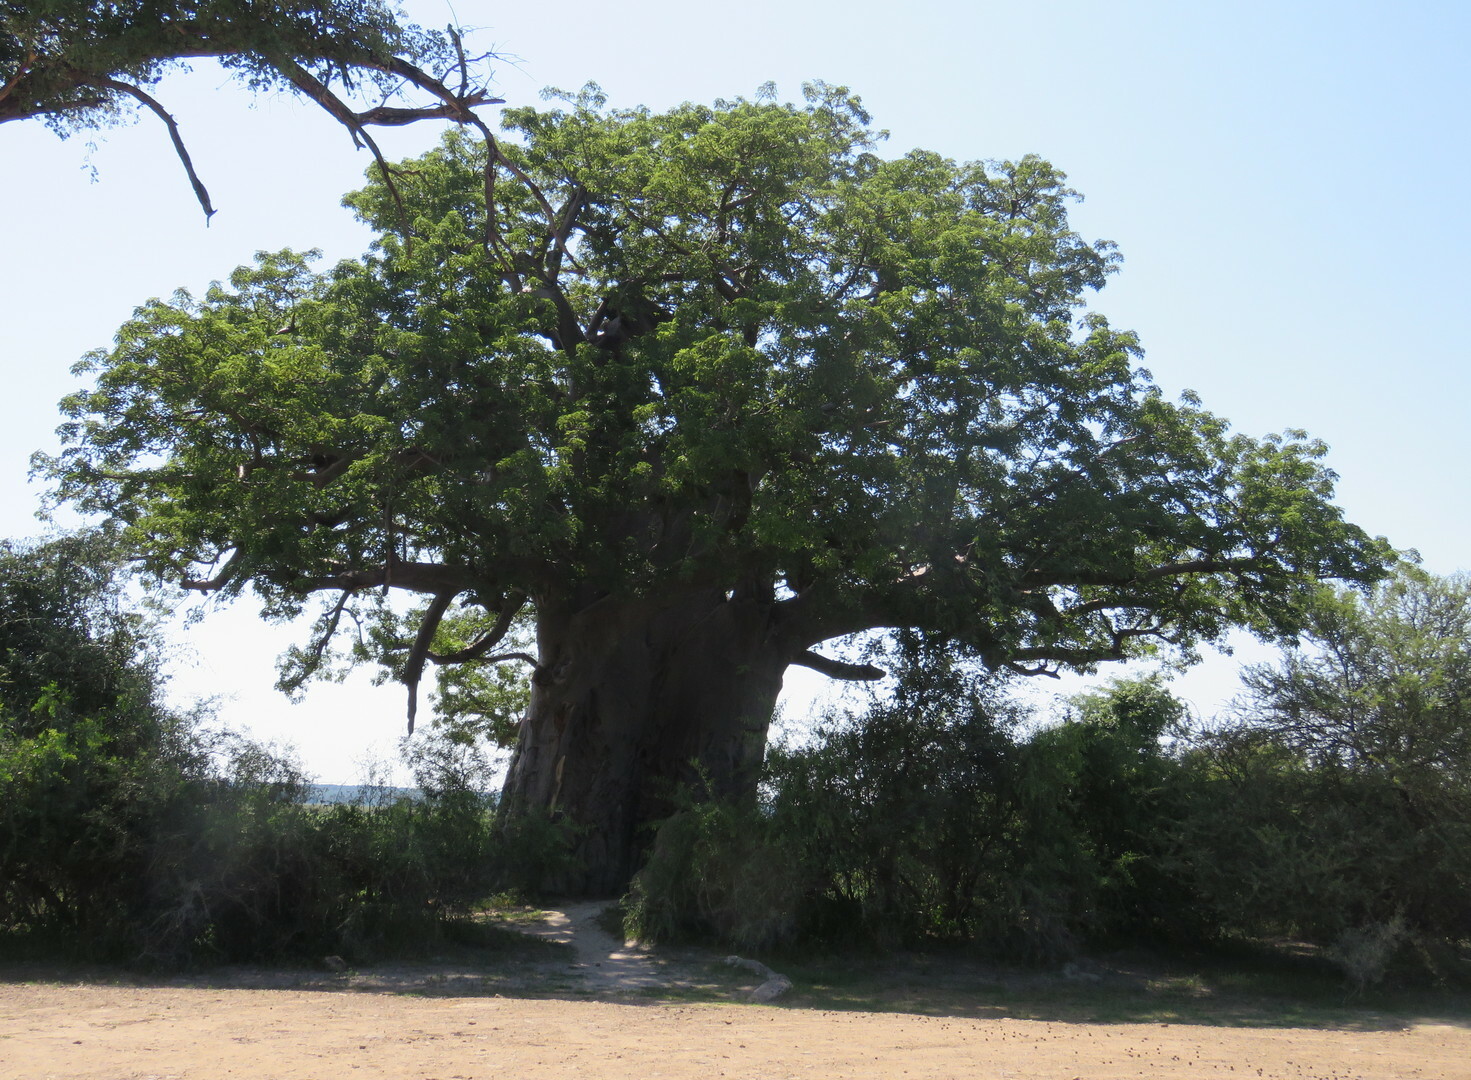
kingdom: Plantae
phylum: Tracheophyta
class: Magnoliopsida
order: Malvales
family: Malvaceae
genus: Adansonia
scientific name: Adansonia digitata
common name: Dead-rat-tree
